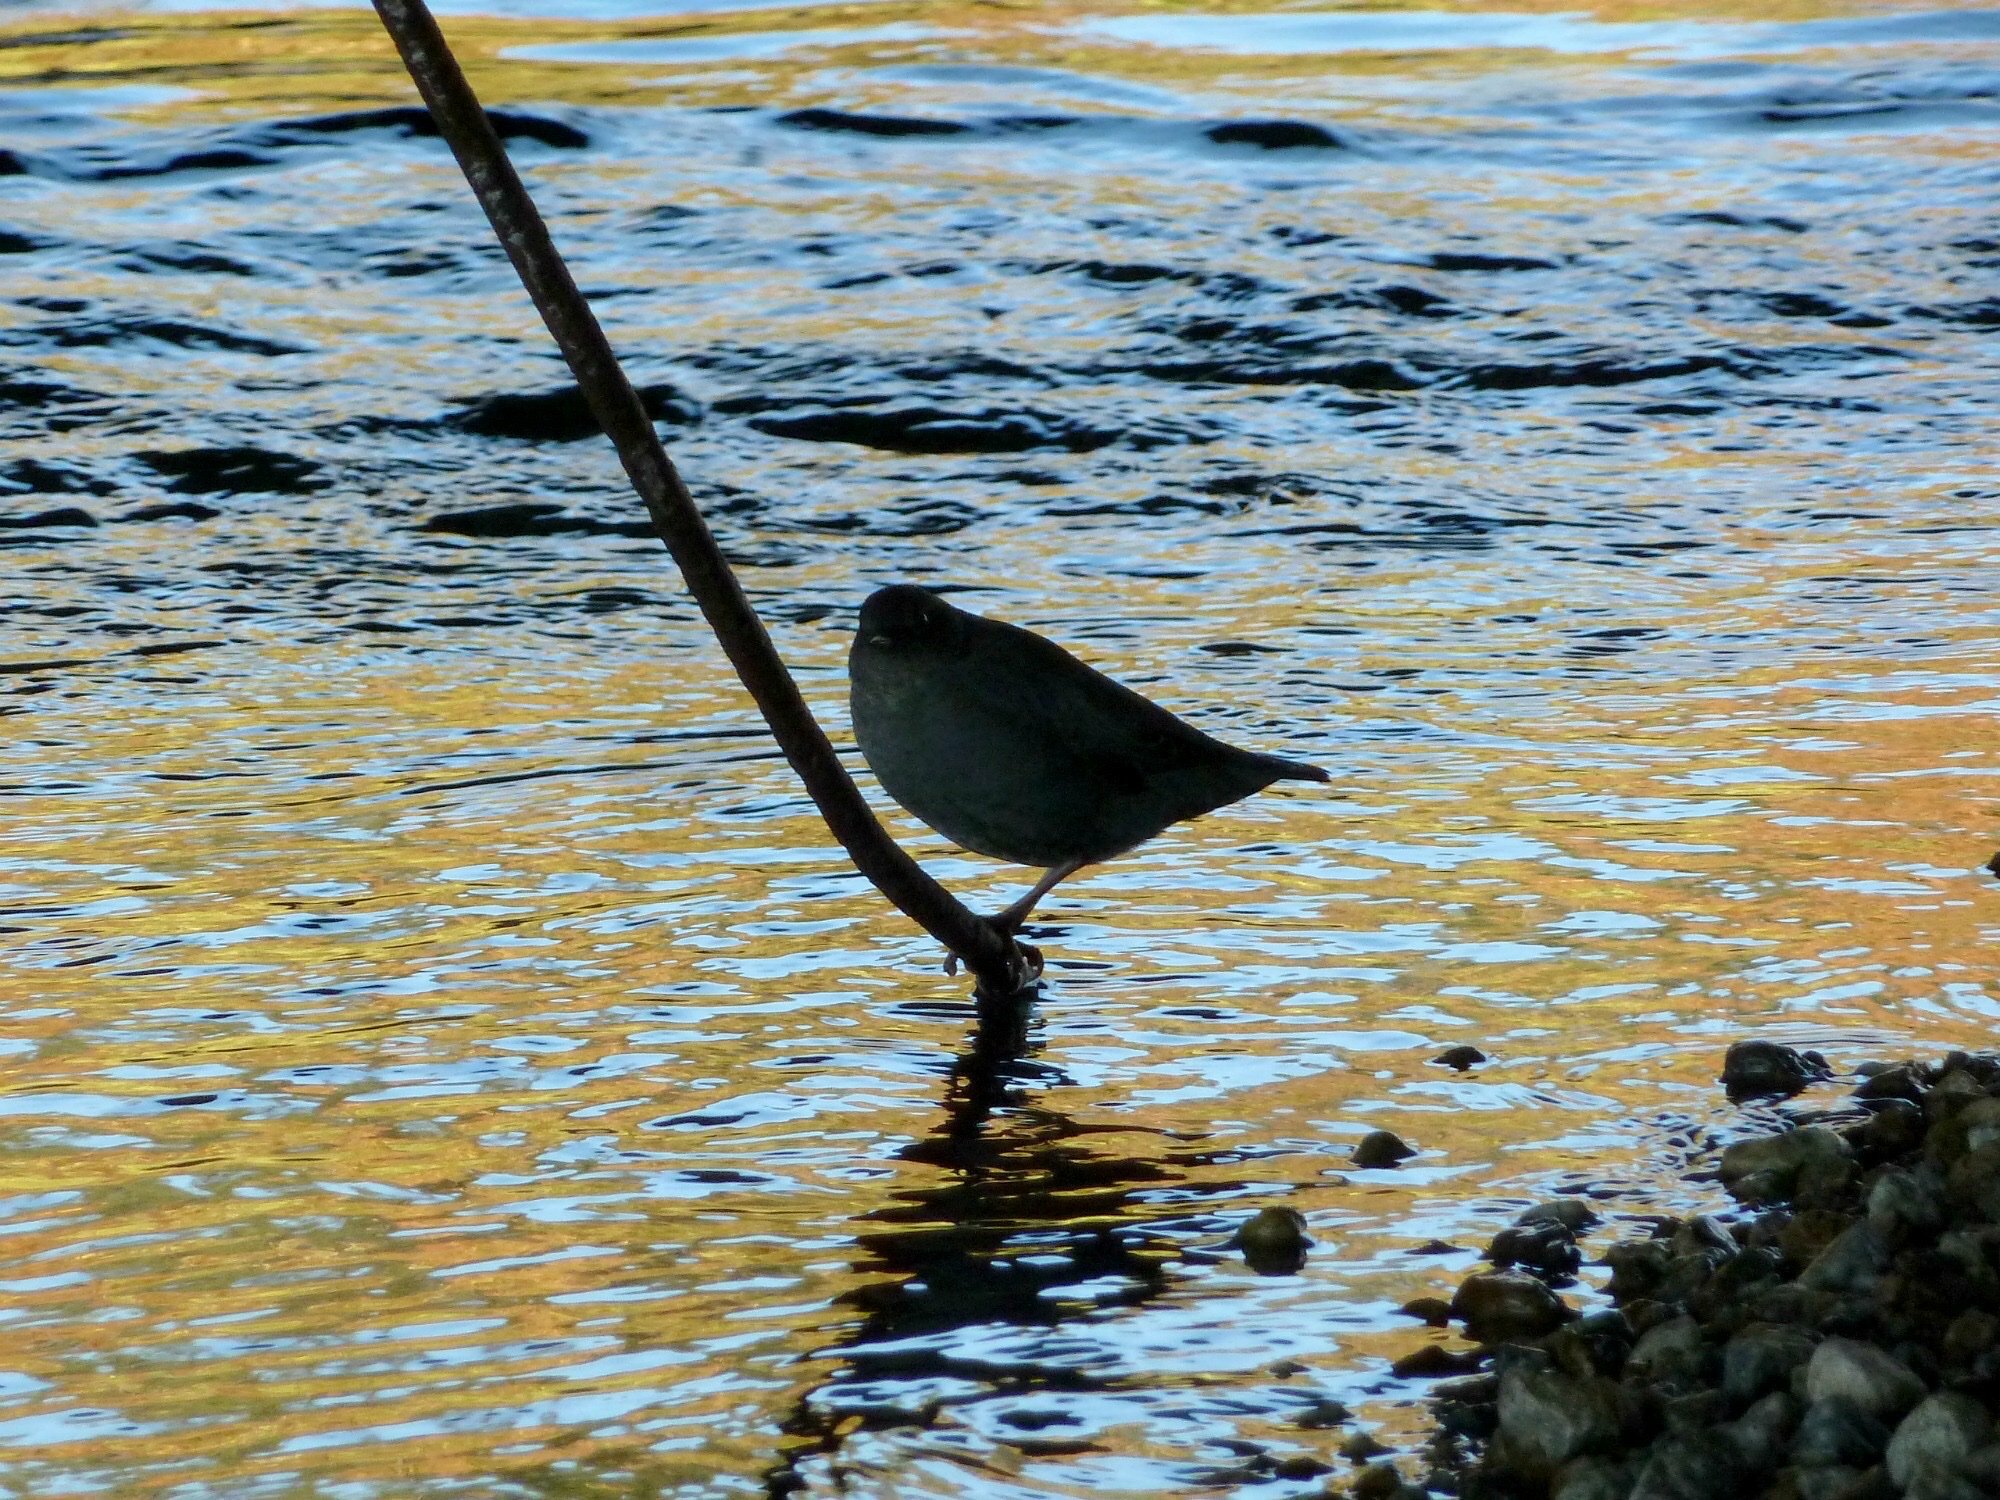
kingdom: Animalia
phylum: Chordata
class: Aves
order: Passeriformes
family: Cinclidae
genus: Cinclus
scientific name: Cinclus mexicanus
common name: American dipper
